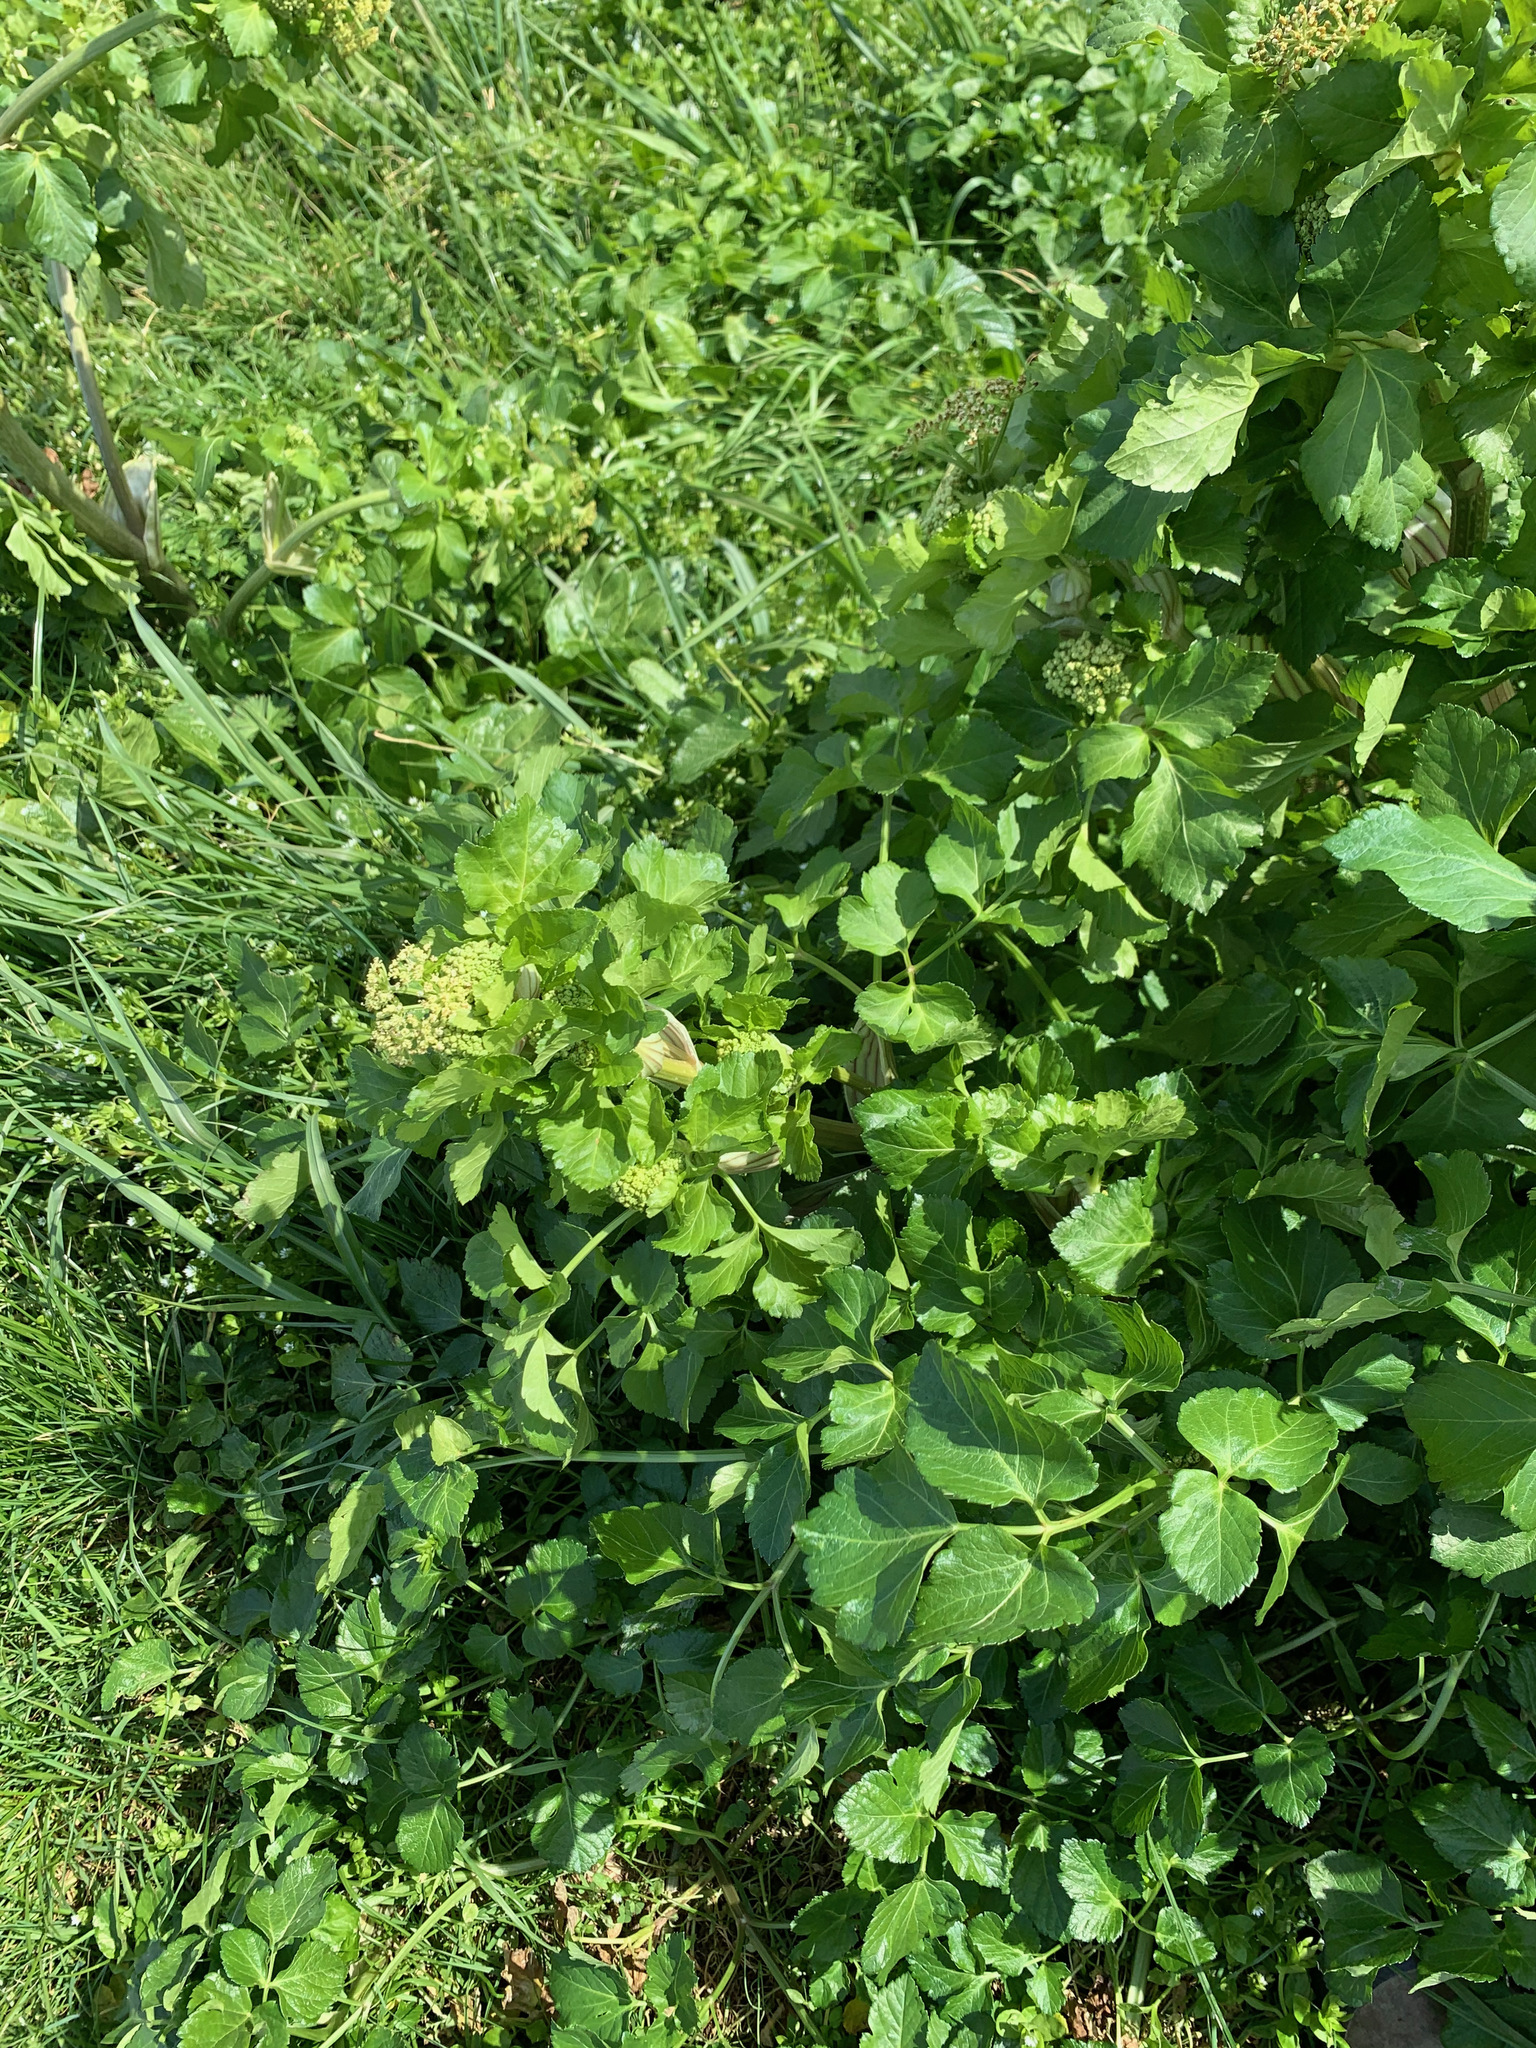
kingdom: Plantae
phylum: Tracheophyta
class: Magnoliopsida
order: Apiales
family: Apiaceae
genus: Smyrnium
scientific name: Smyrnium olusatrum
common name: Alexanders
